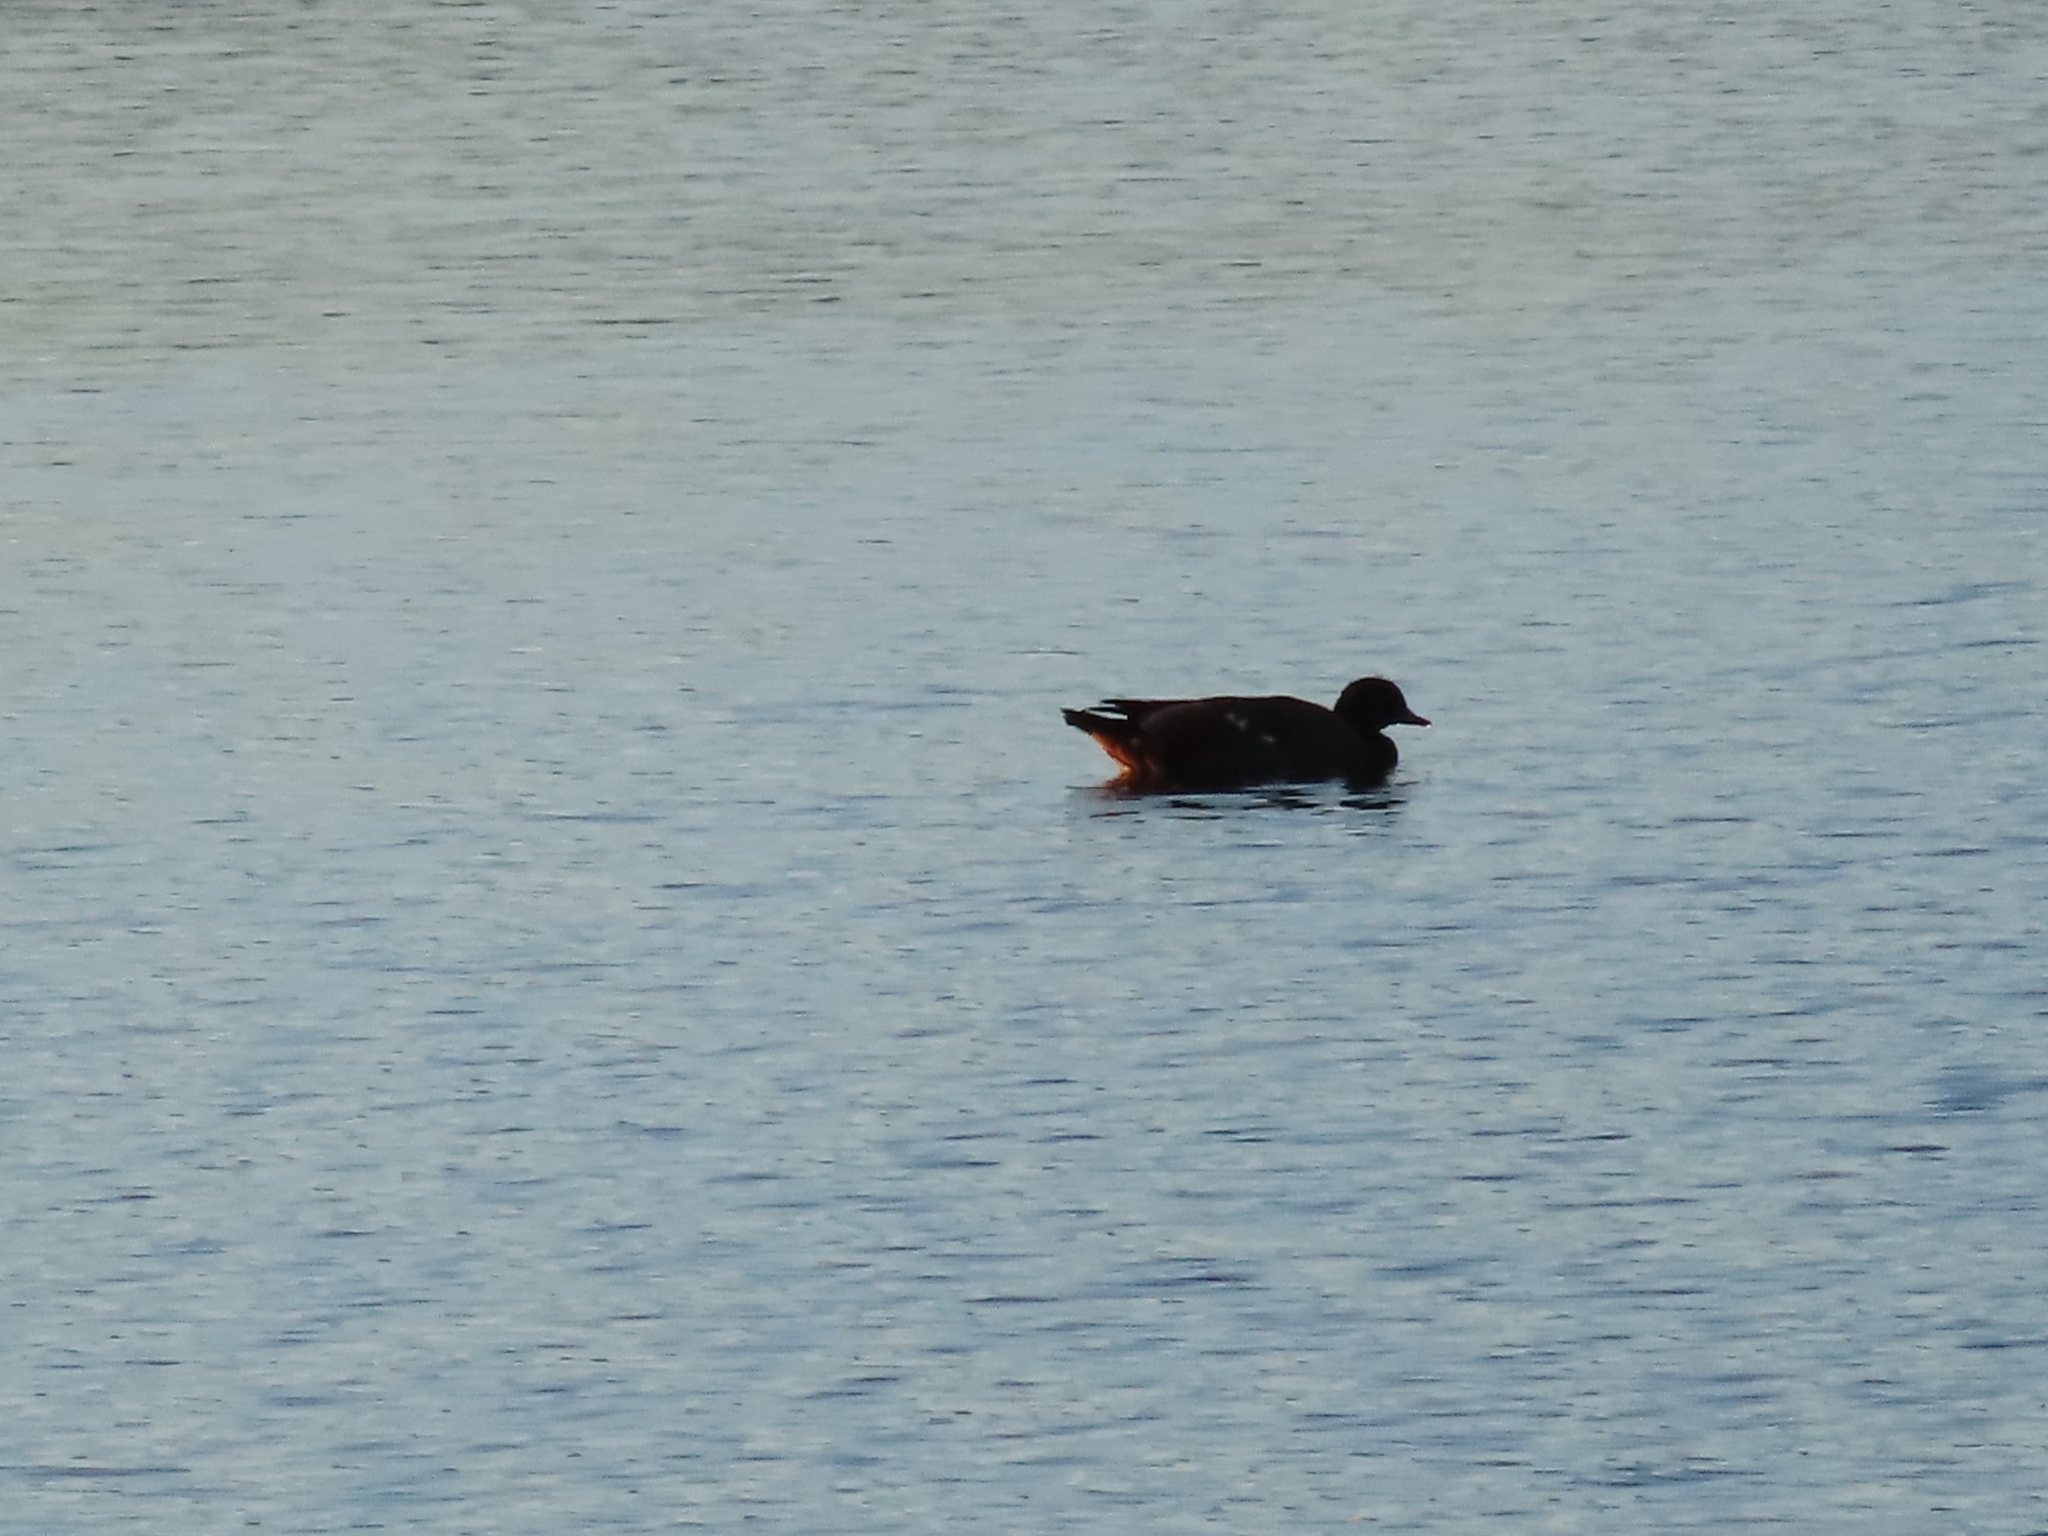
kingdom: Animalia
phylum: Chordata
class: Aves
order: Anseriformes
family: Anatidae
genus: Tadorna
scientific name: Tadorna variegata
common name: Paradise shelduck
